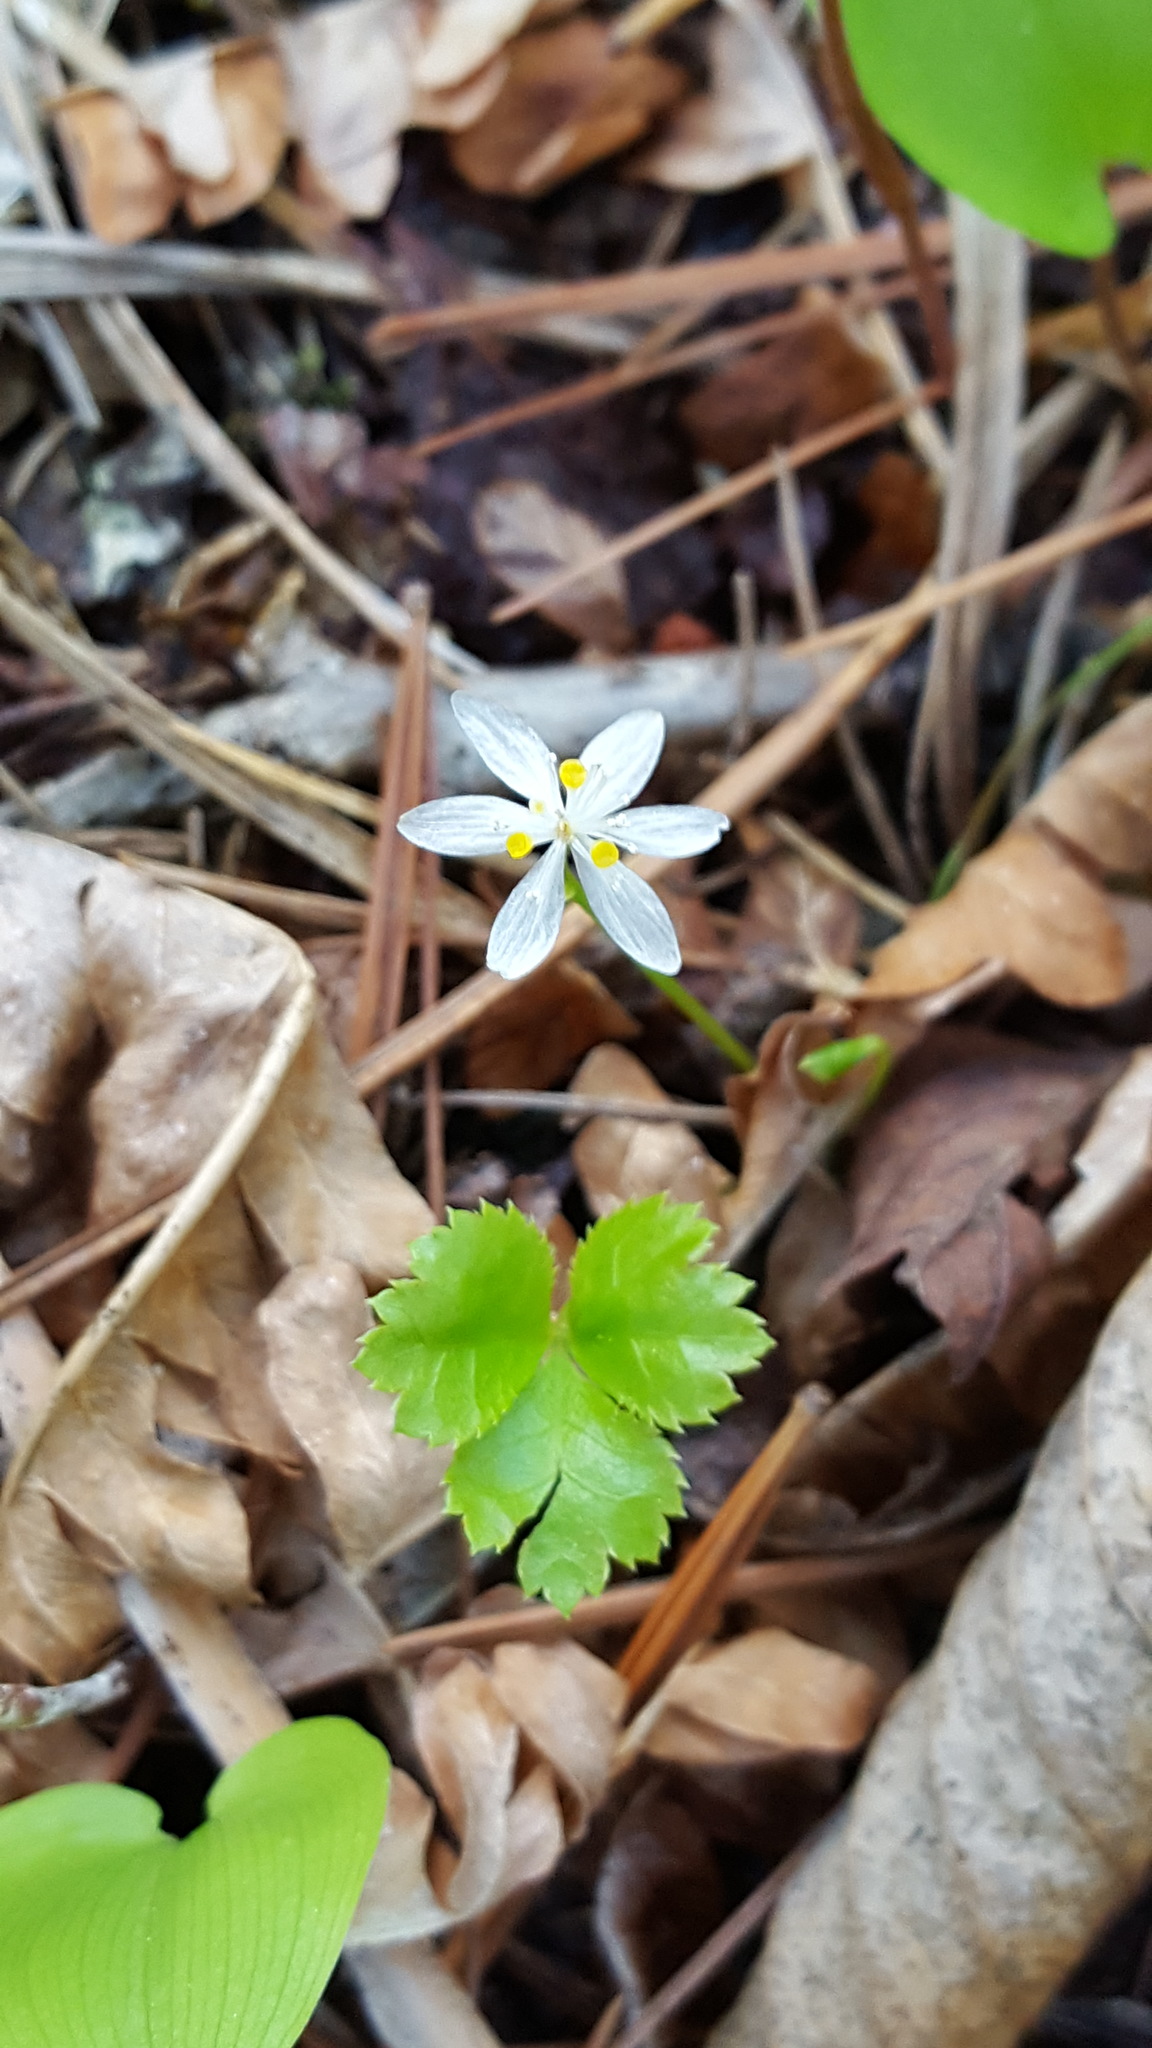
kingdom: Plantae
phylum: Tracheophyta
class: Magnoliopsida
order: Ranunculales
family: Ranunculaceae
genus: Coptis
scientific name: Coptis trifolia
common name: Canker-root
